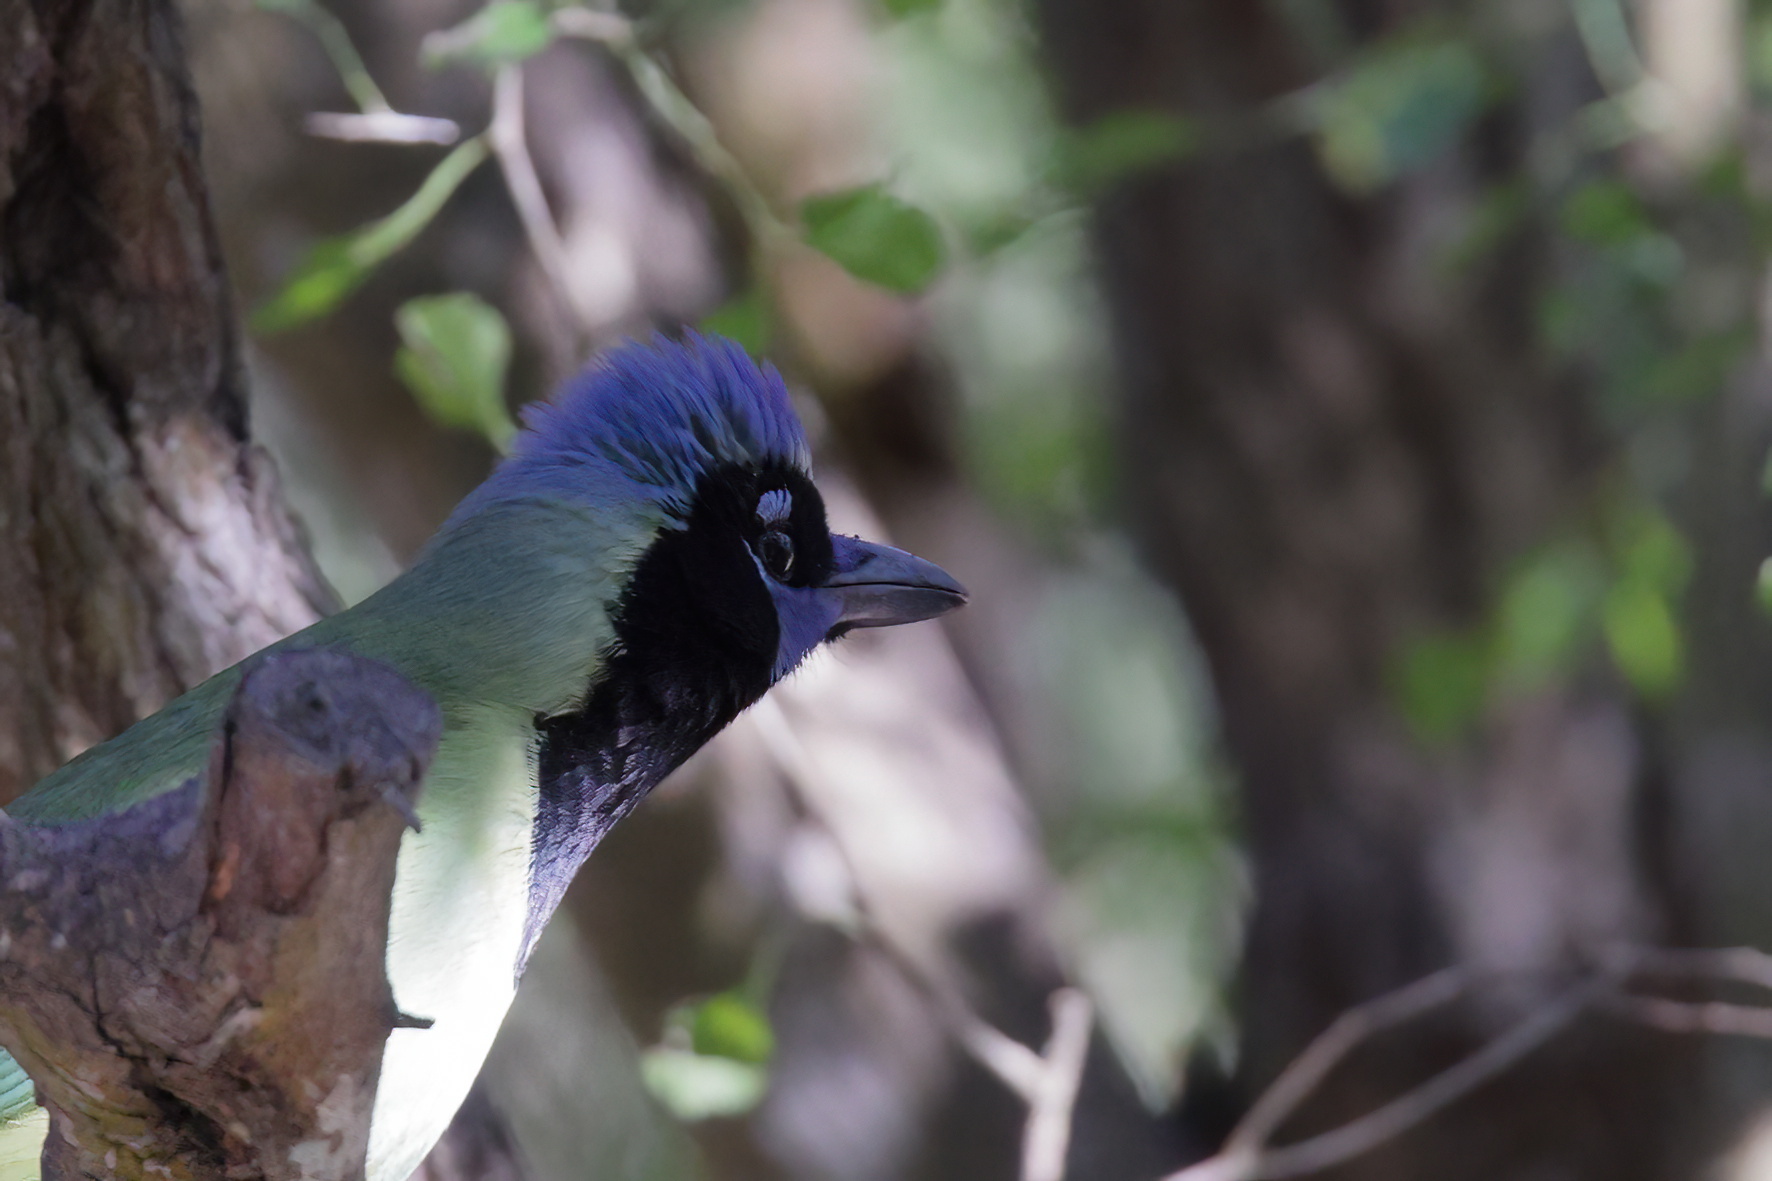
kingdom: Animalia
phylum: Chordata
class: Aves
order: Passeriformes
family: Corvidae
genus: Cyanocorax
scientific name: Cyanocorax yncas
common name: Green jay
